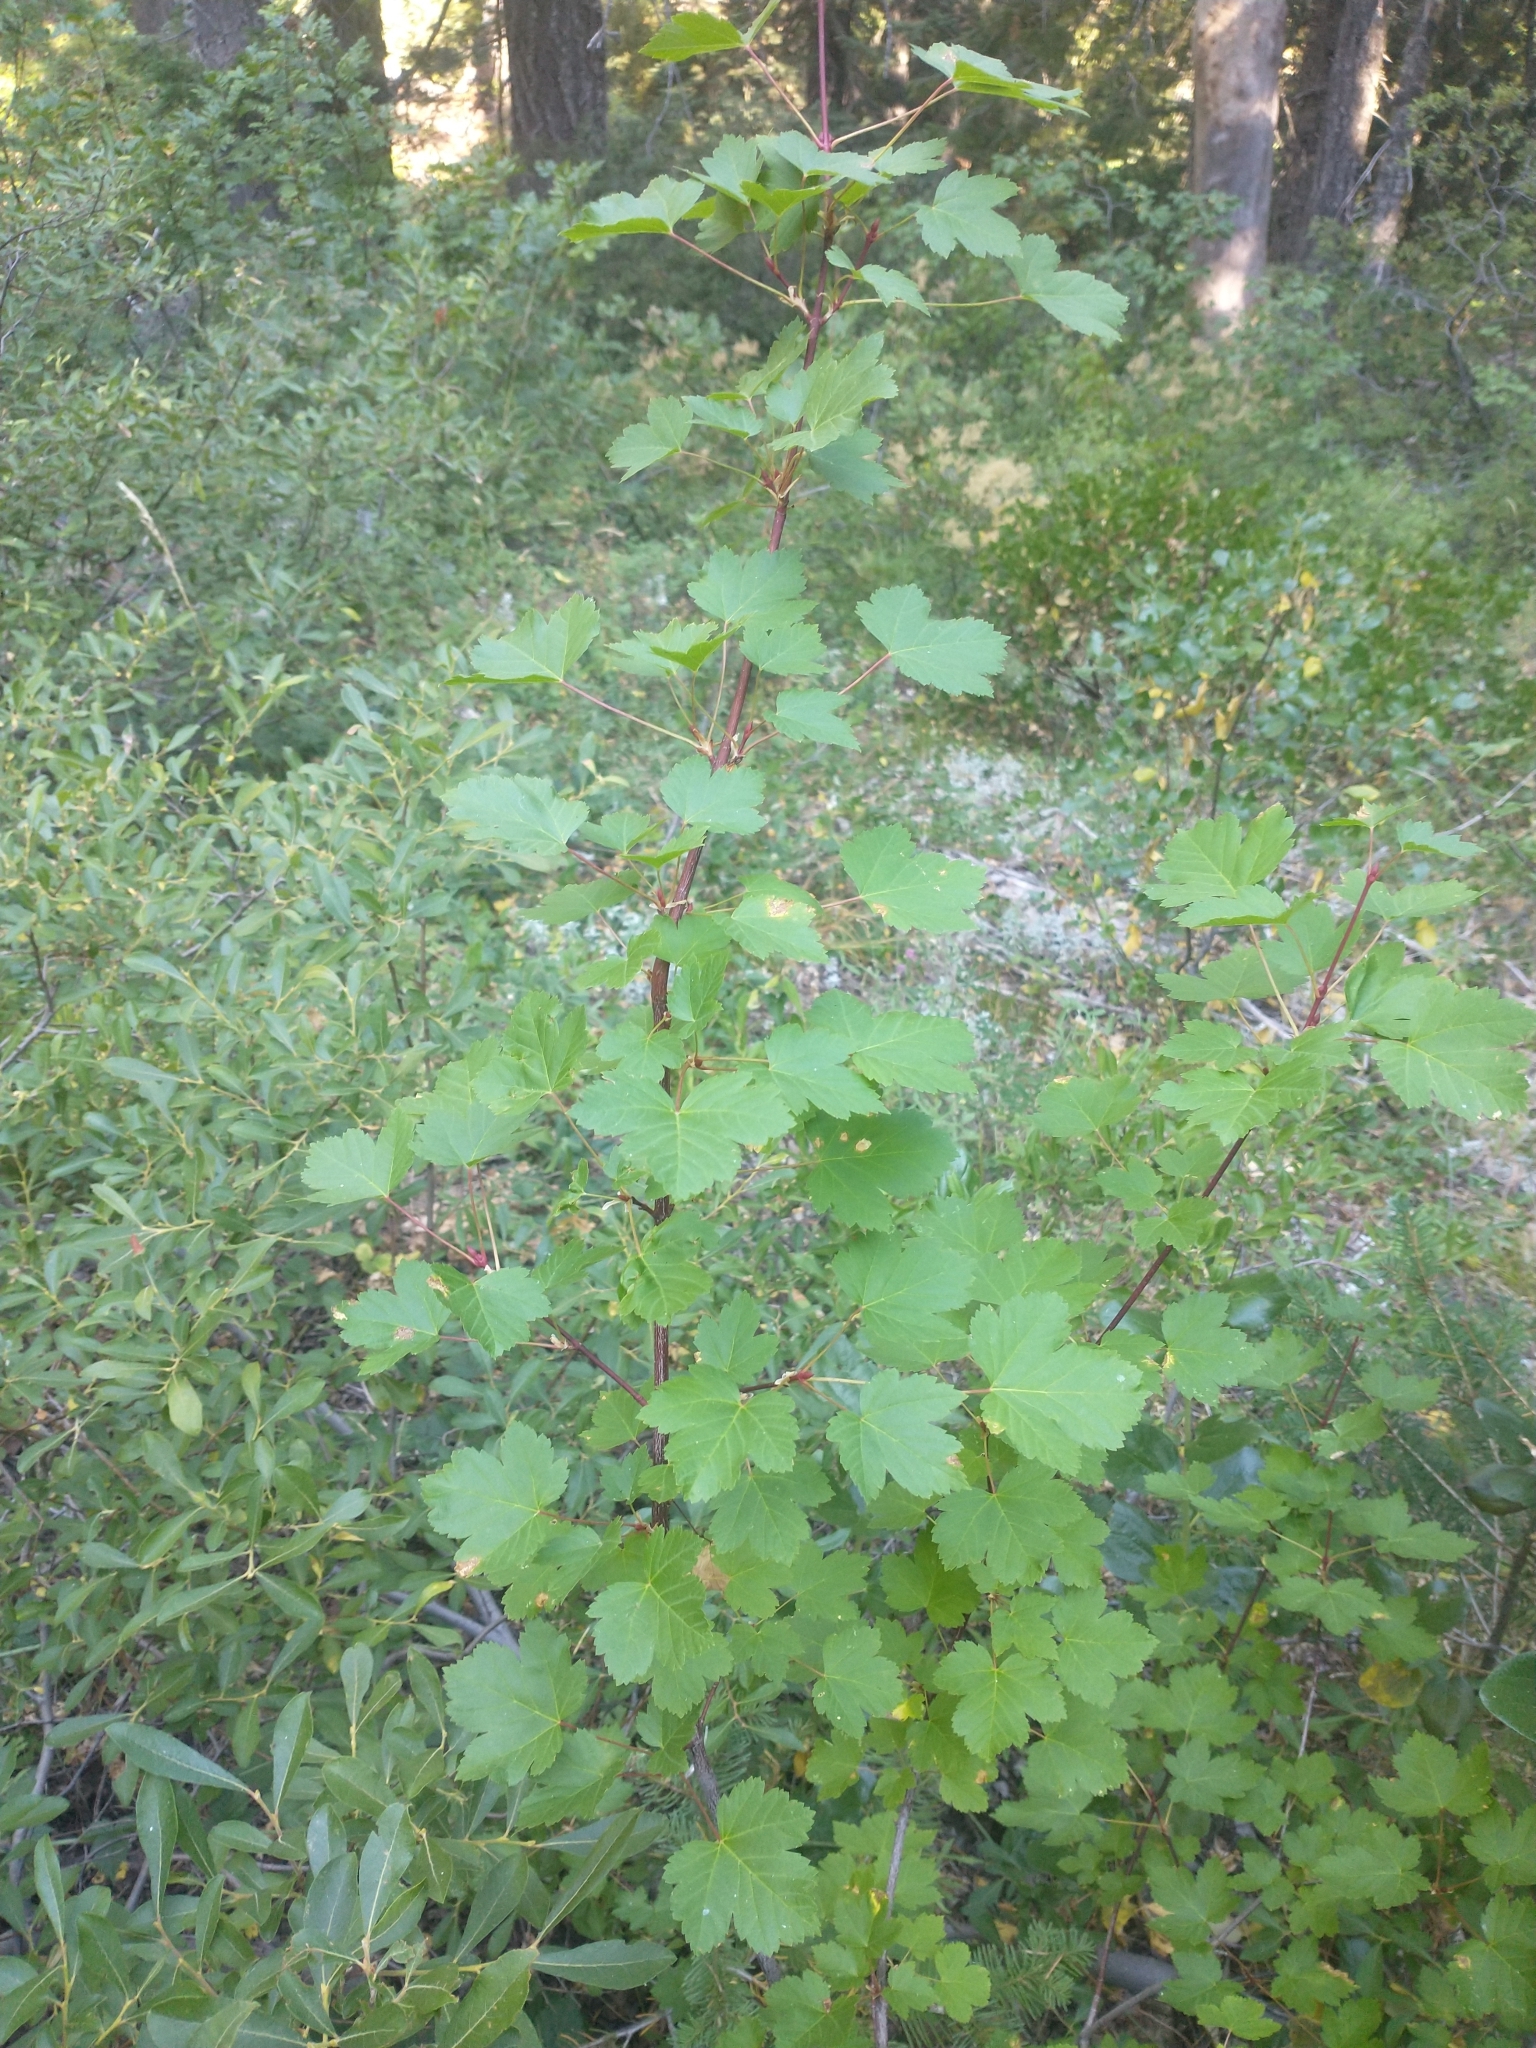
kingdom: Plantae
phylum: Tracheophyta
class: Magnoliopsida
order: Sapindales
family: Sapindaceae
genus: Acer
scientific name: Acer glabrum
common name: Rocky mountain maple
